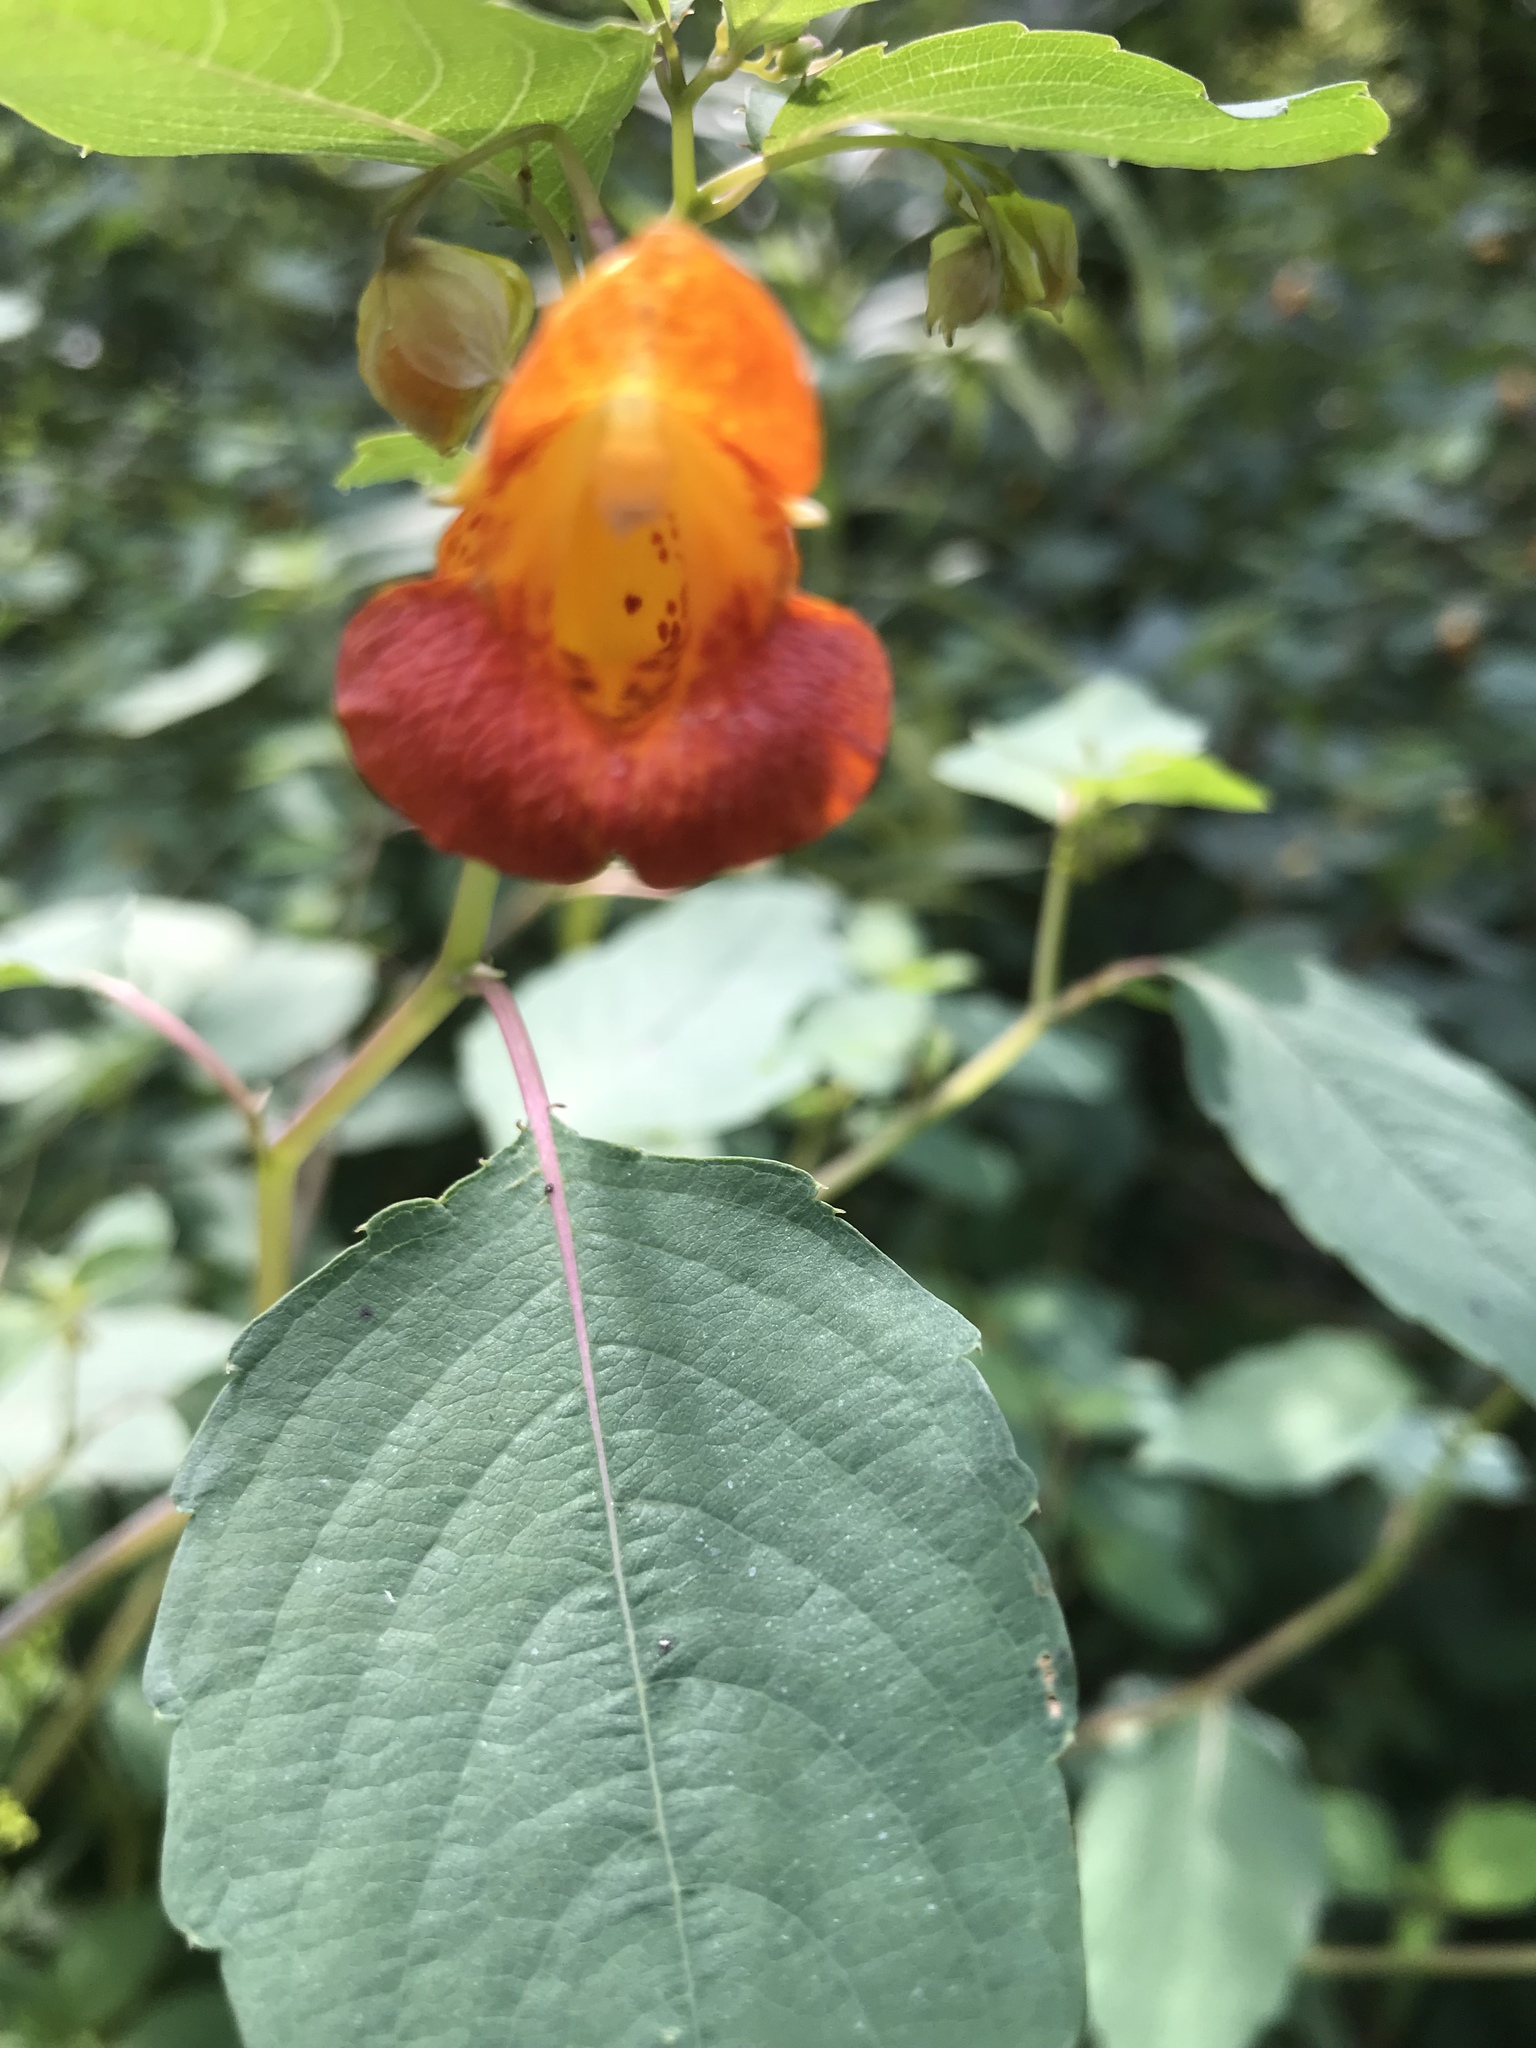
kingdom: Plantae
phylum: Tracheophyta
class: Magnoliopsida
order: Ericales
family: Balsaminaceae
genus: Impatiens
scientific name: Impatiens capensis
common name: Orange balsam
